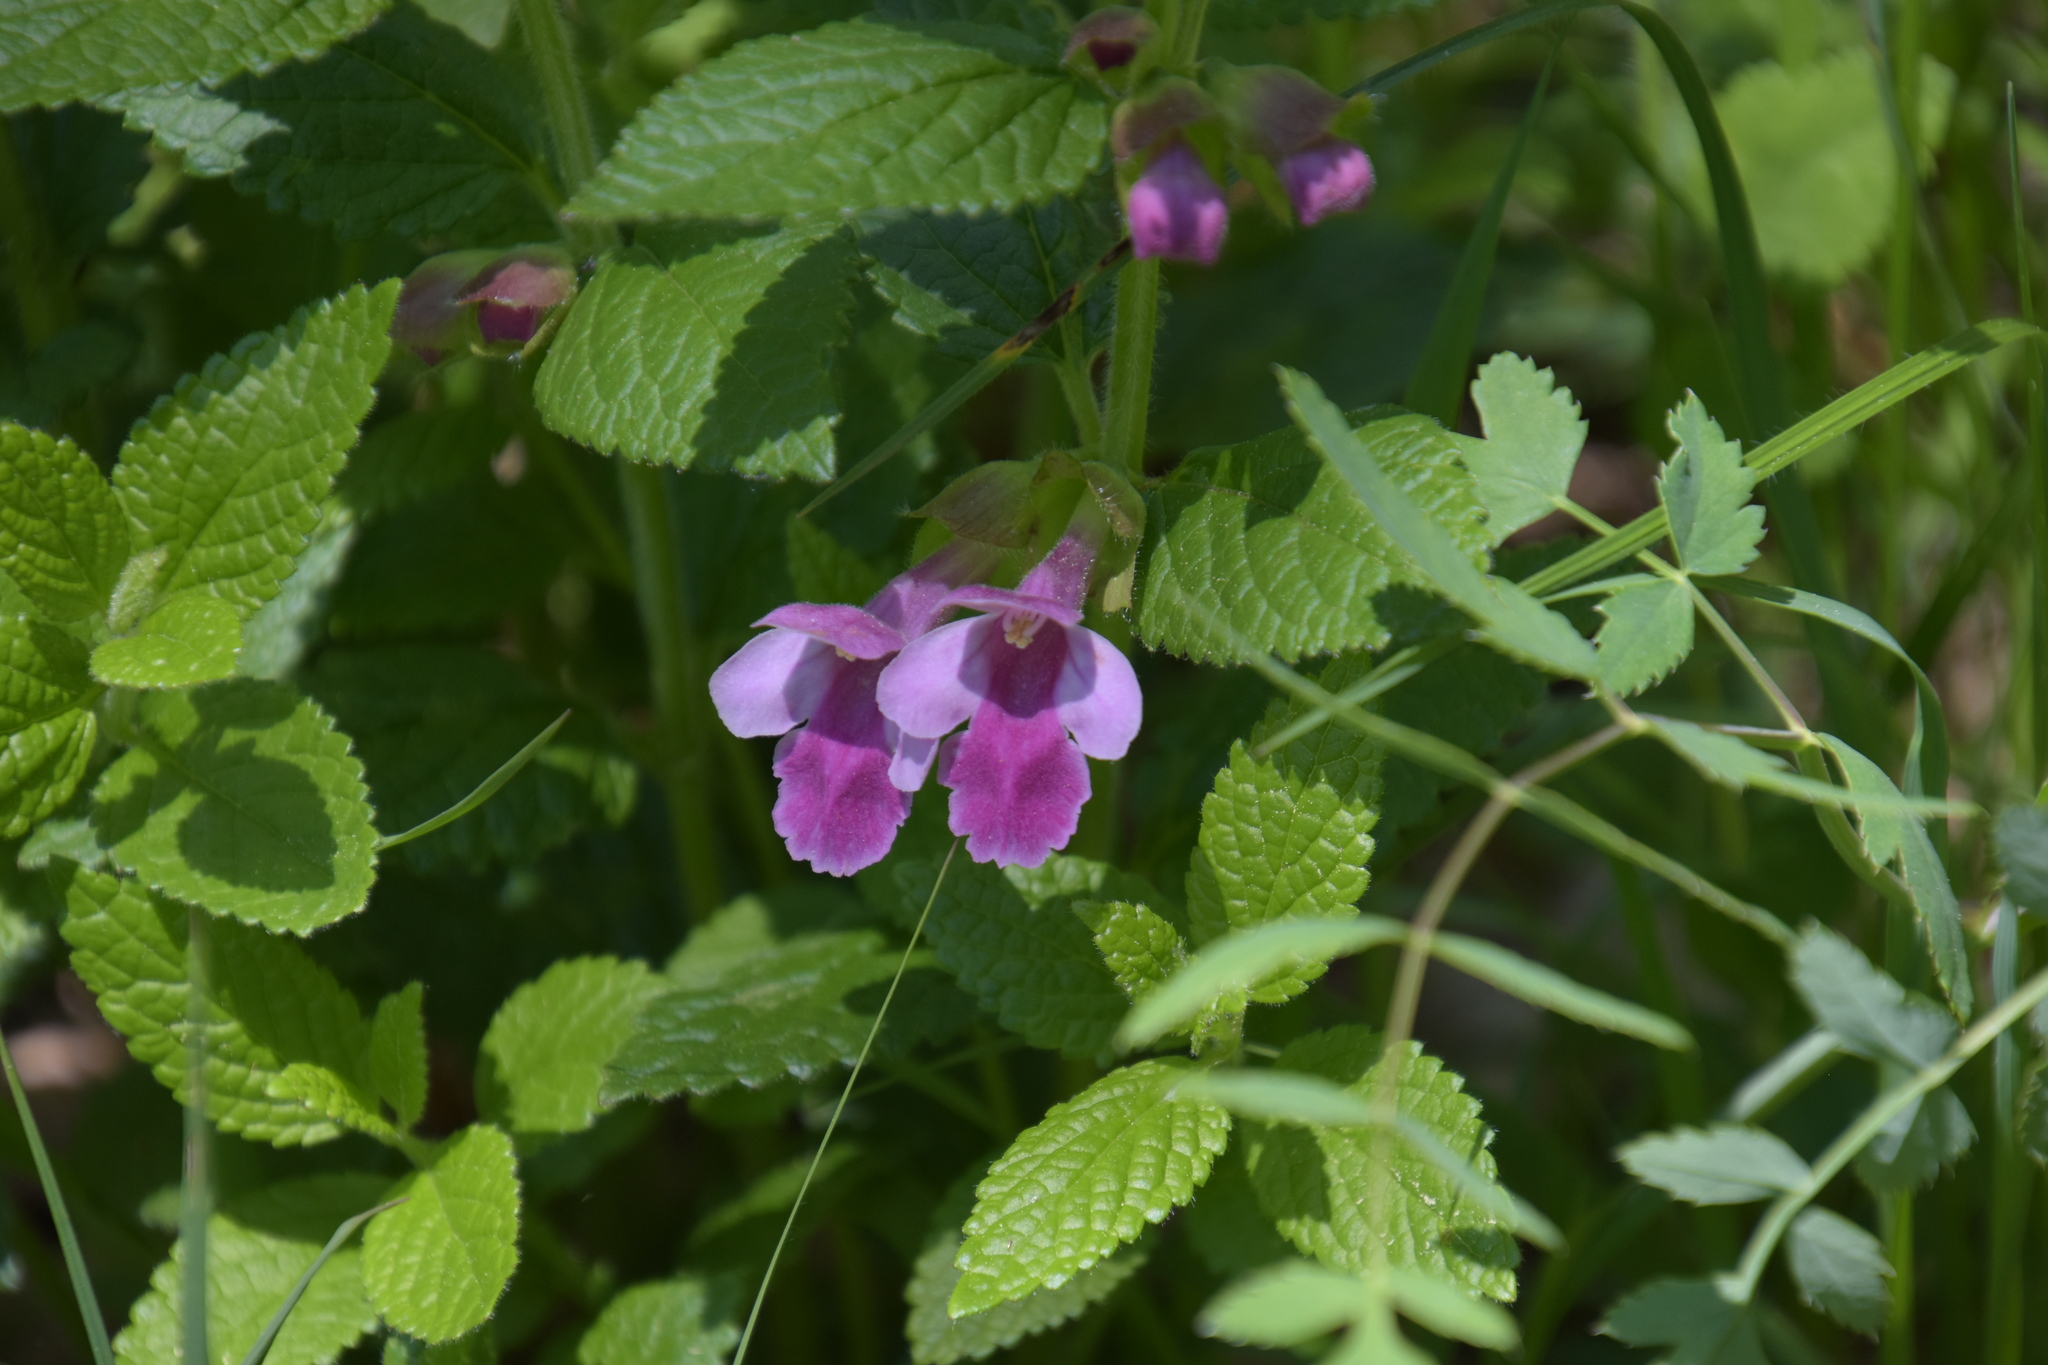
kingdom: Plantae
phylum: Tracheophyta
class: Magnoliopsida
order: Lamiales
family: Lamiaceae
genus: Melittis
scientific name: Melittis melissophyllum
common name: Bastard balm
